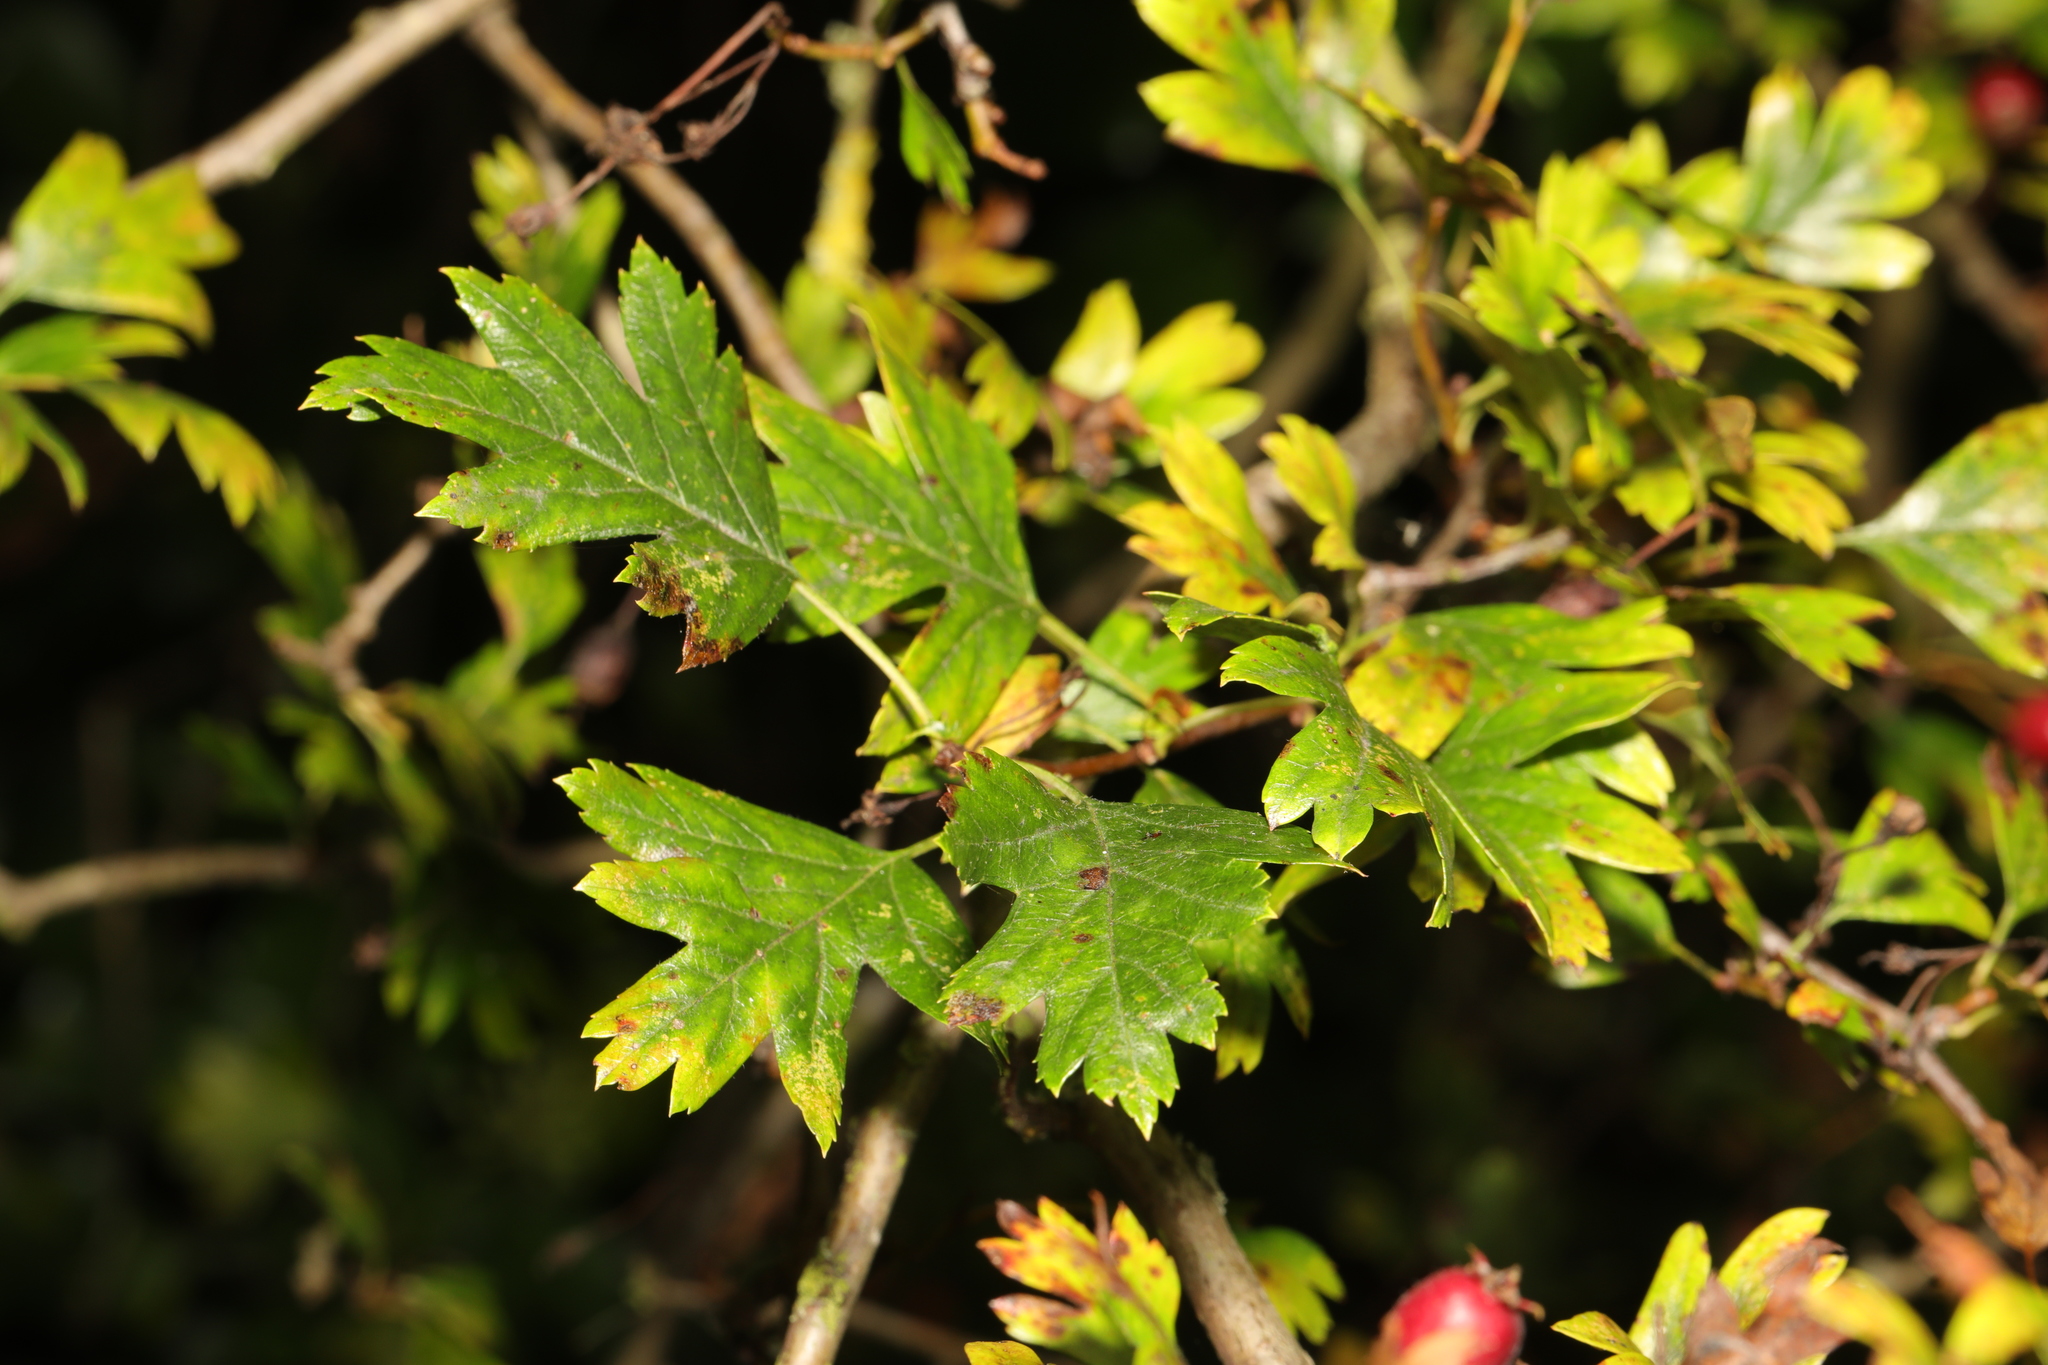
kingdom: Plantae
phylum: Tracheophyta
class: Magnoliopsida
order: Rosales
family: Rosaceae
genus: Crataegus
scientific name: Crataegus monogyna
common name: Hawthorn
